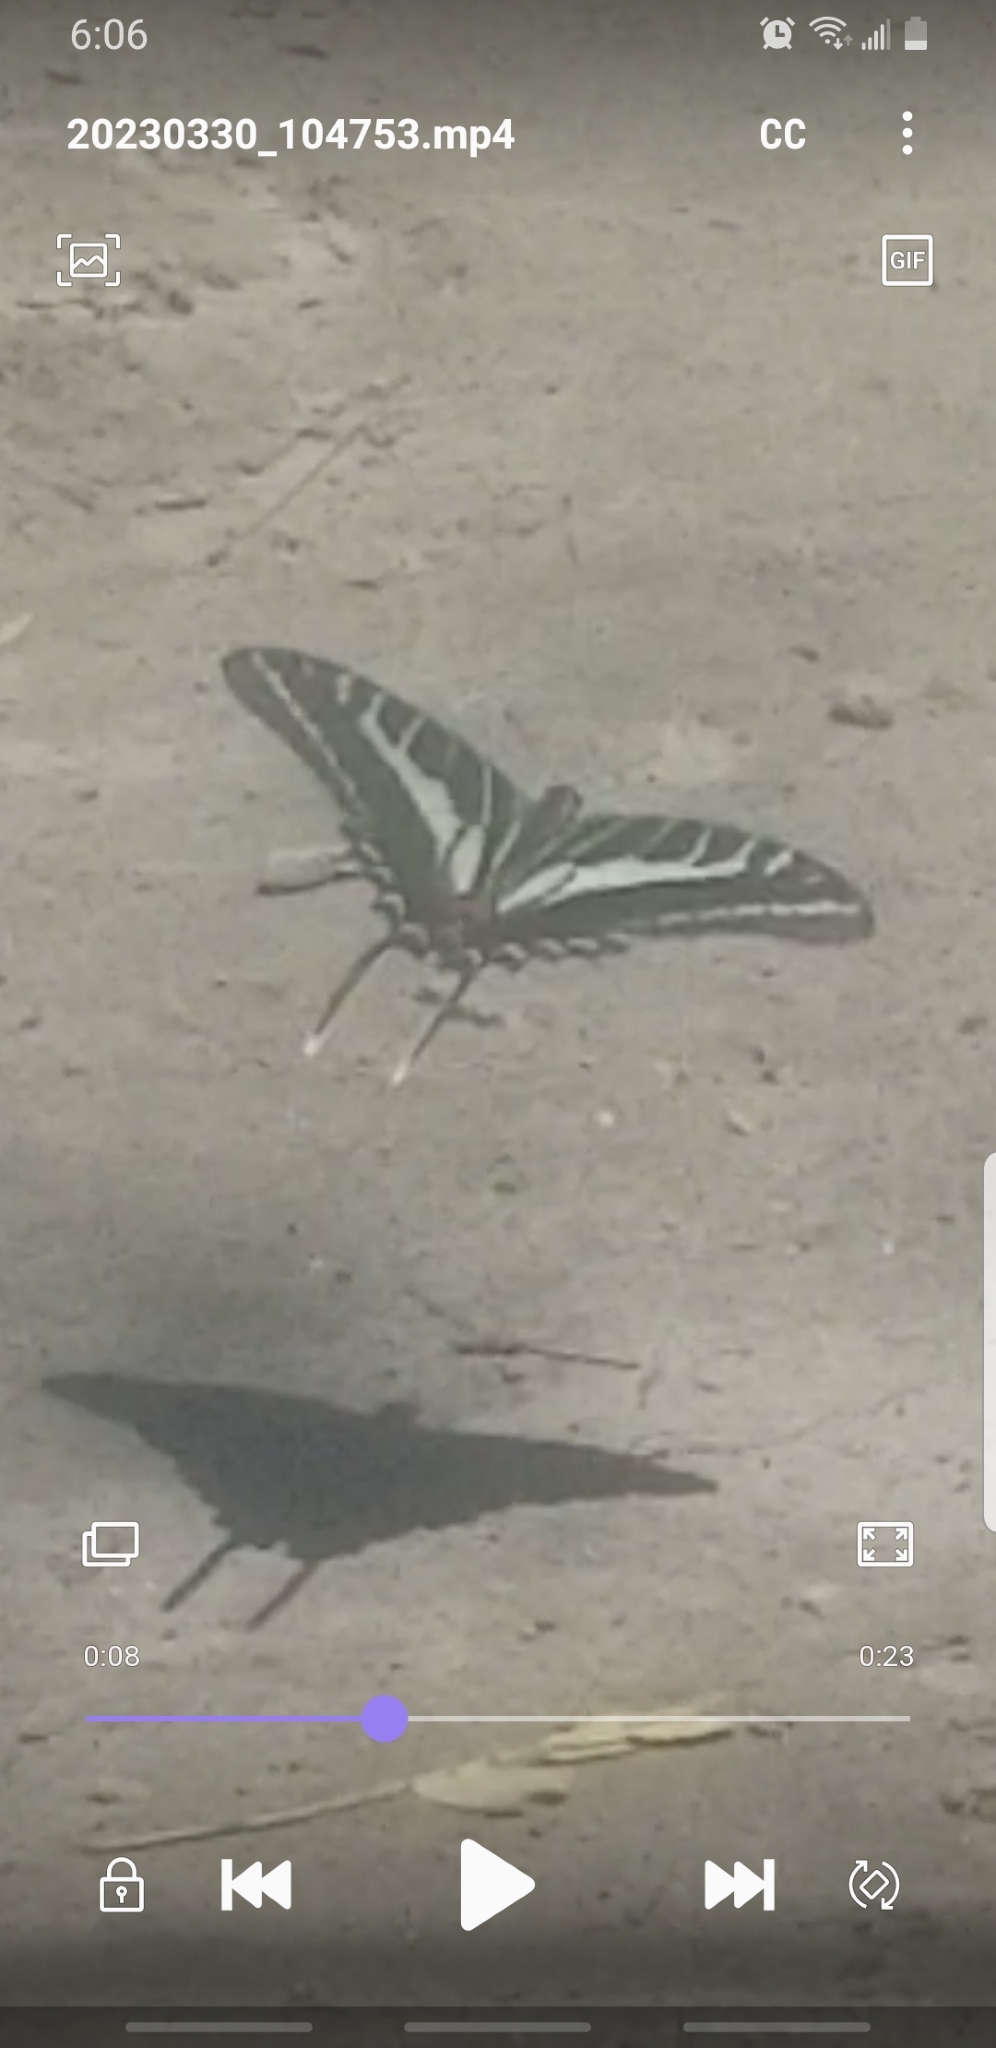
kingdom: Animalia
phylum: Arthropoda
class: Insecta
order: Lepidoptera
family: Papilionidae
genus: Protographium
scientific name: Protographium philolaus
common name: Dark zebra swallowtail
